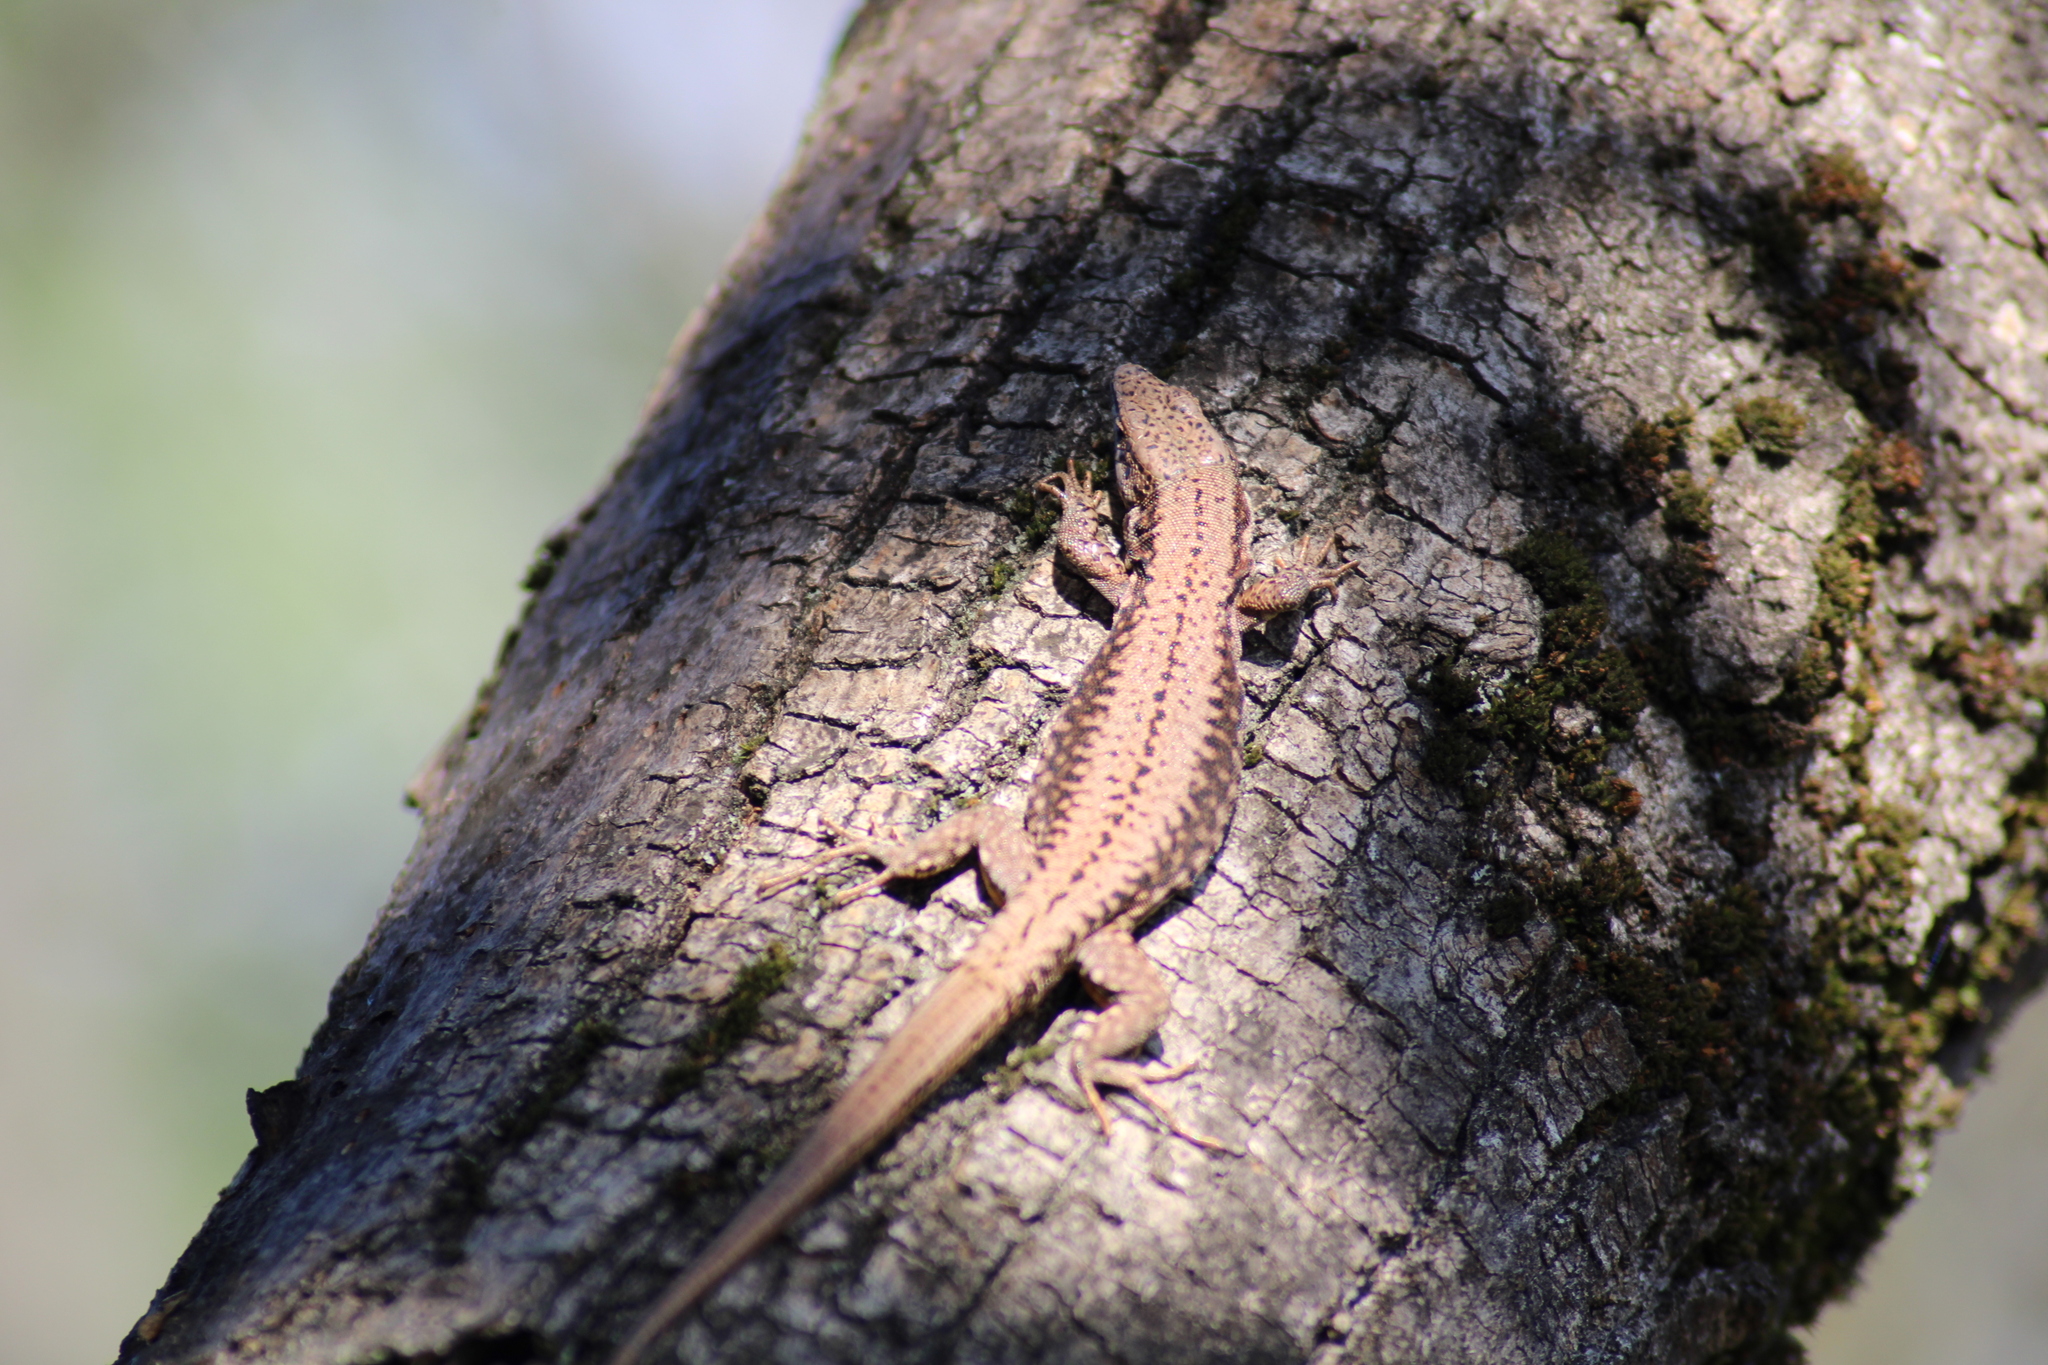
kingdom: Animalia
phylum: Chordata
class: Squamata
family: Lacertidae
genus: Podarcis
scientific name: Podarcis muralis
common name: Common wall lizard
